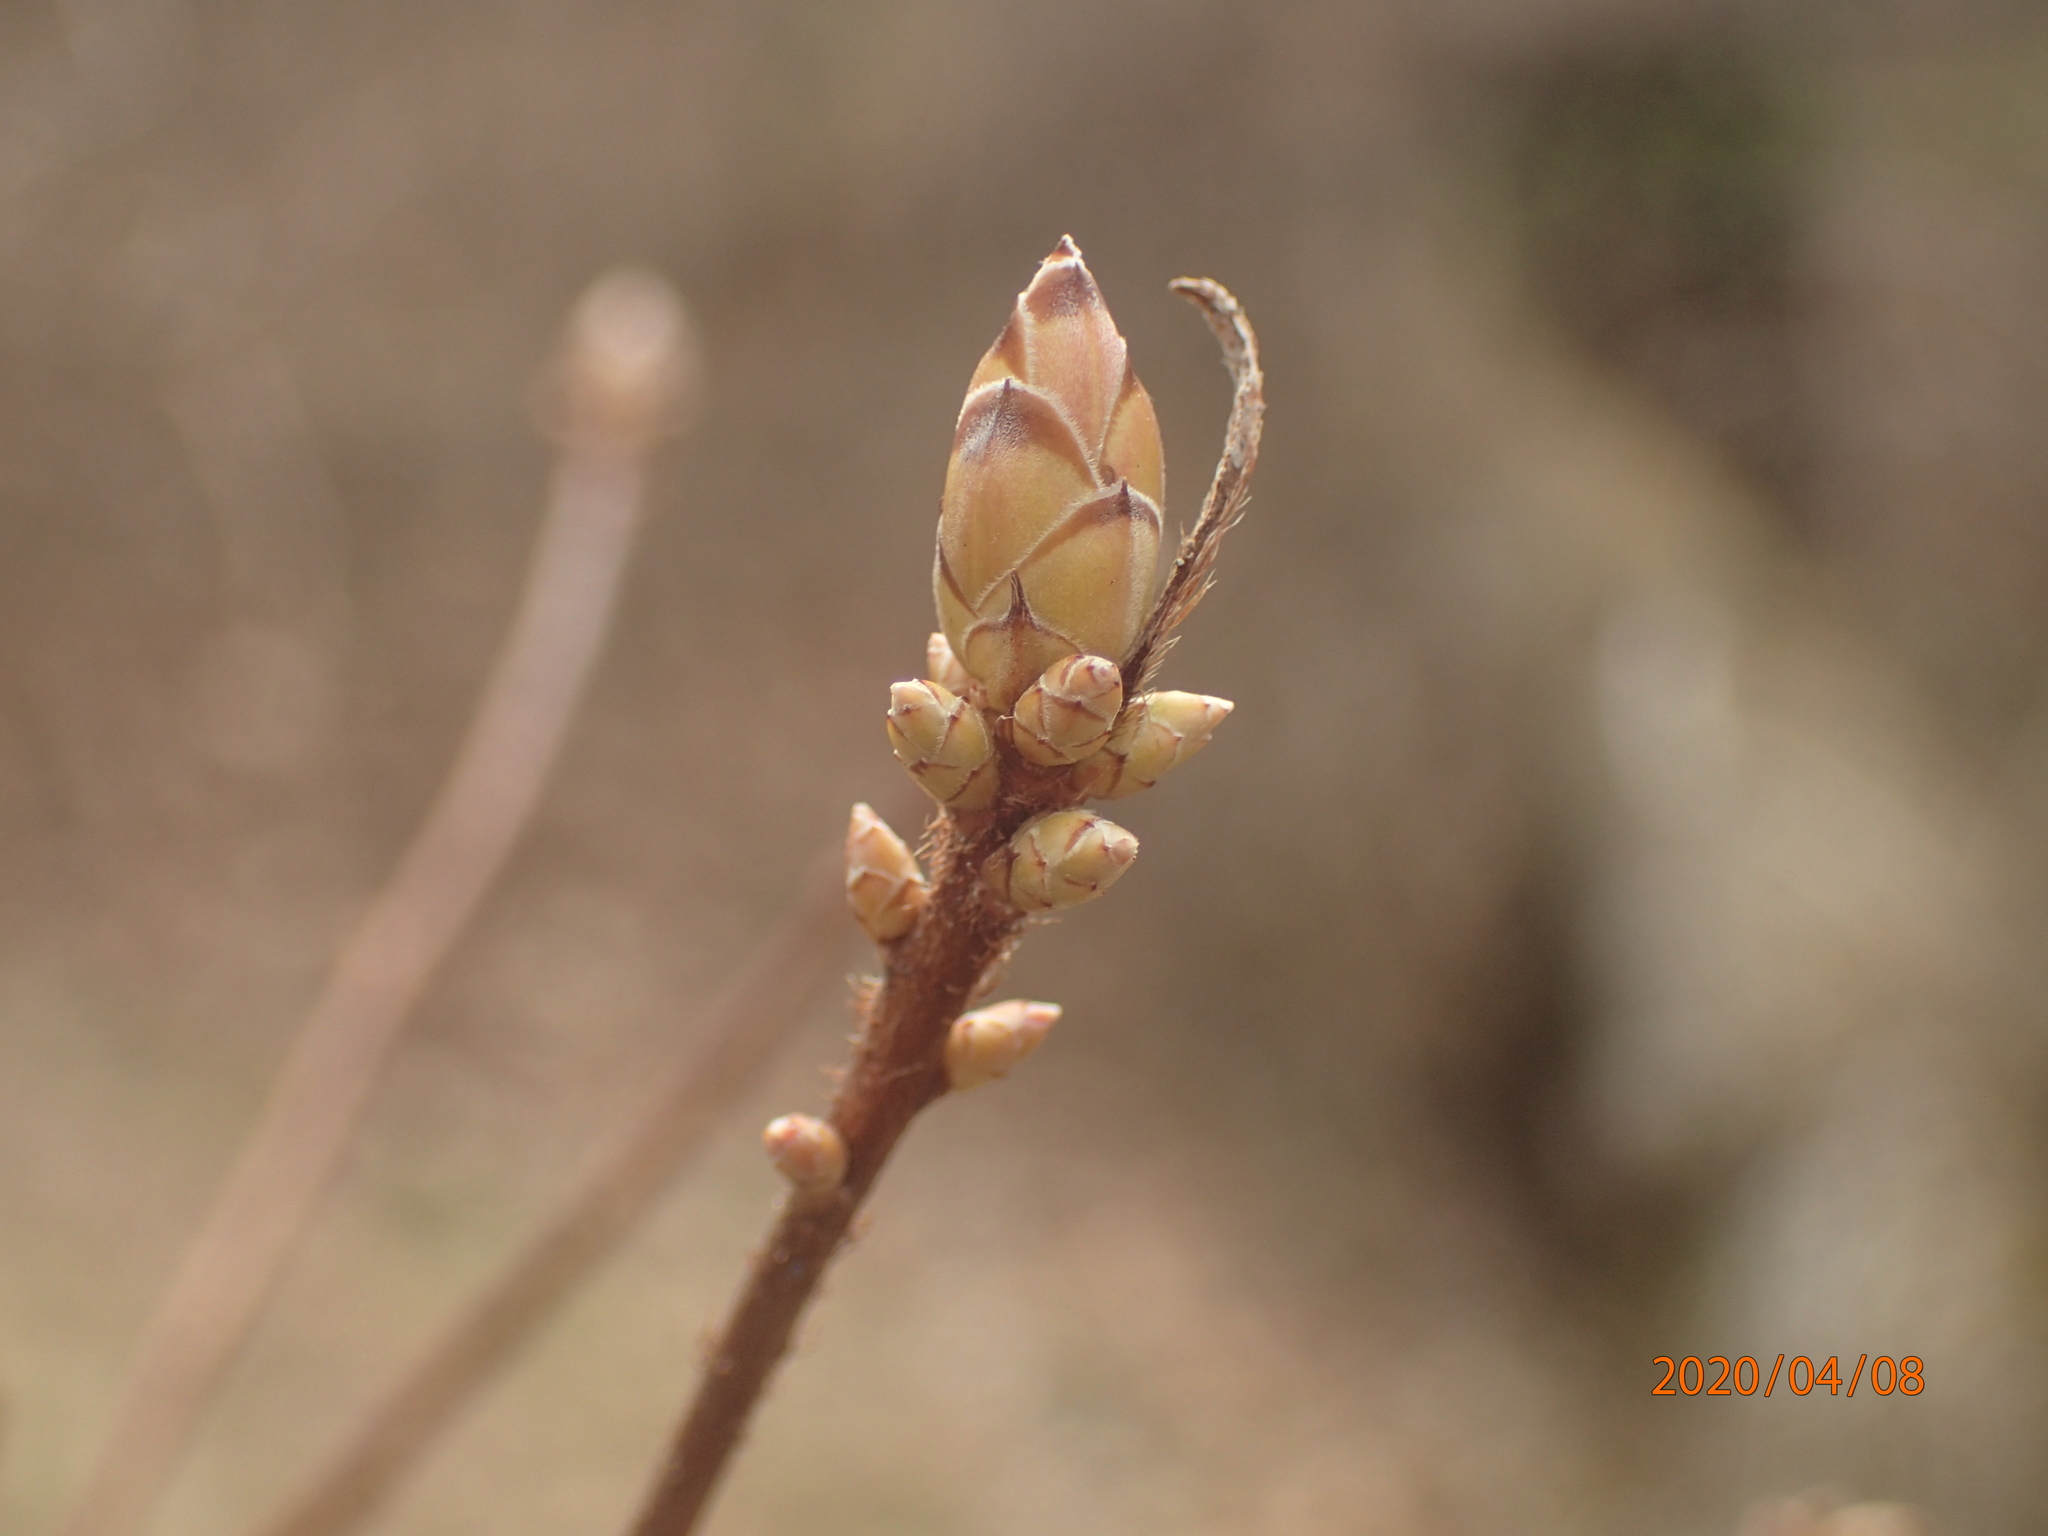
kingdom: Plantae
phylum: Tracheophyta
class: Magnoliopsida
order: Ericales
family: Ericaceae
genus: Rhododendron
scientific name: Rhododendron viscosum
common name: Clammy azalea
